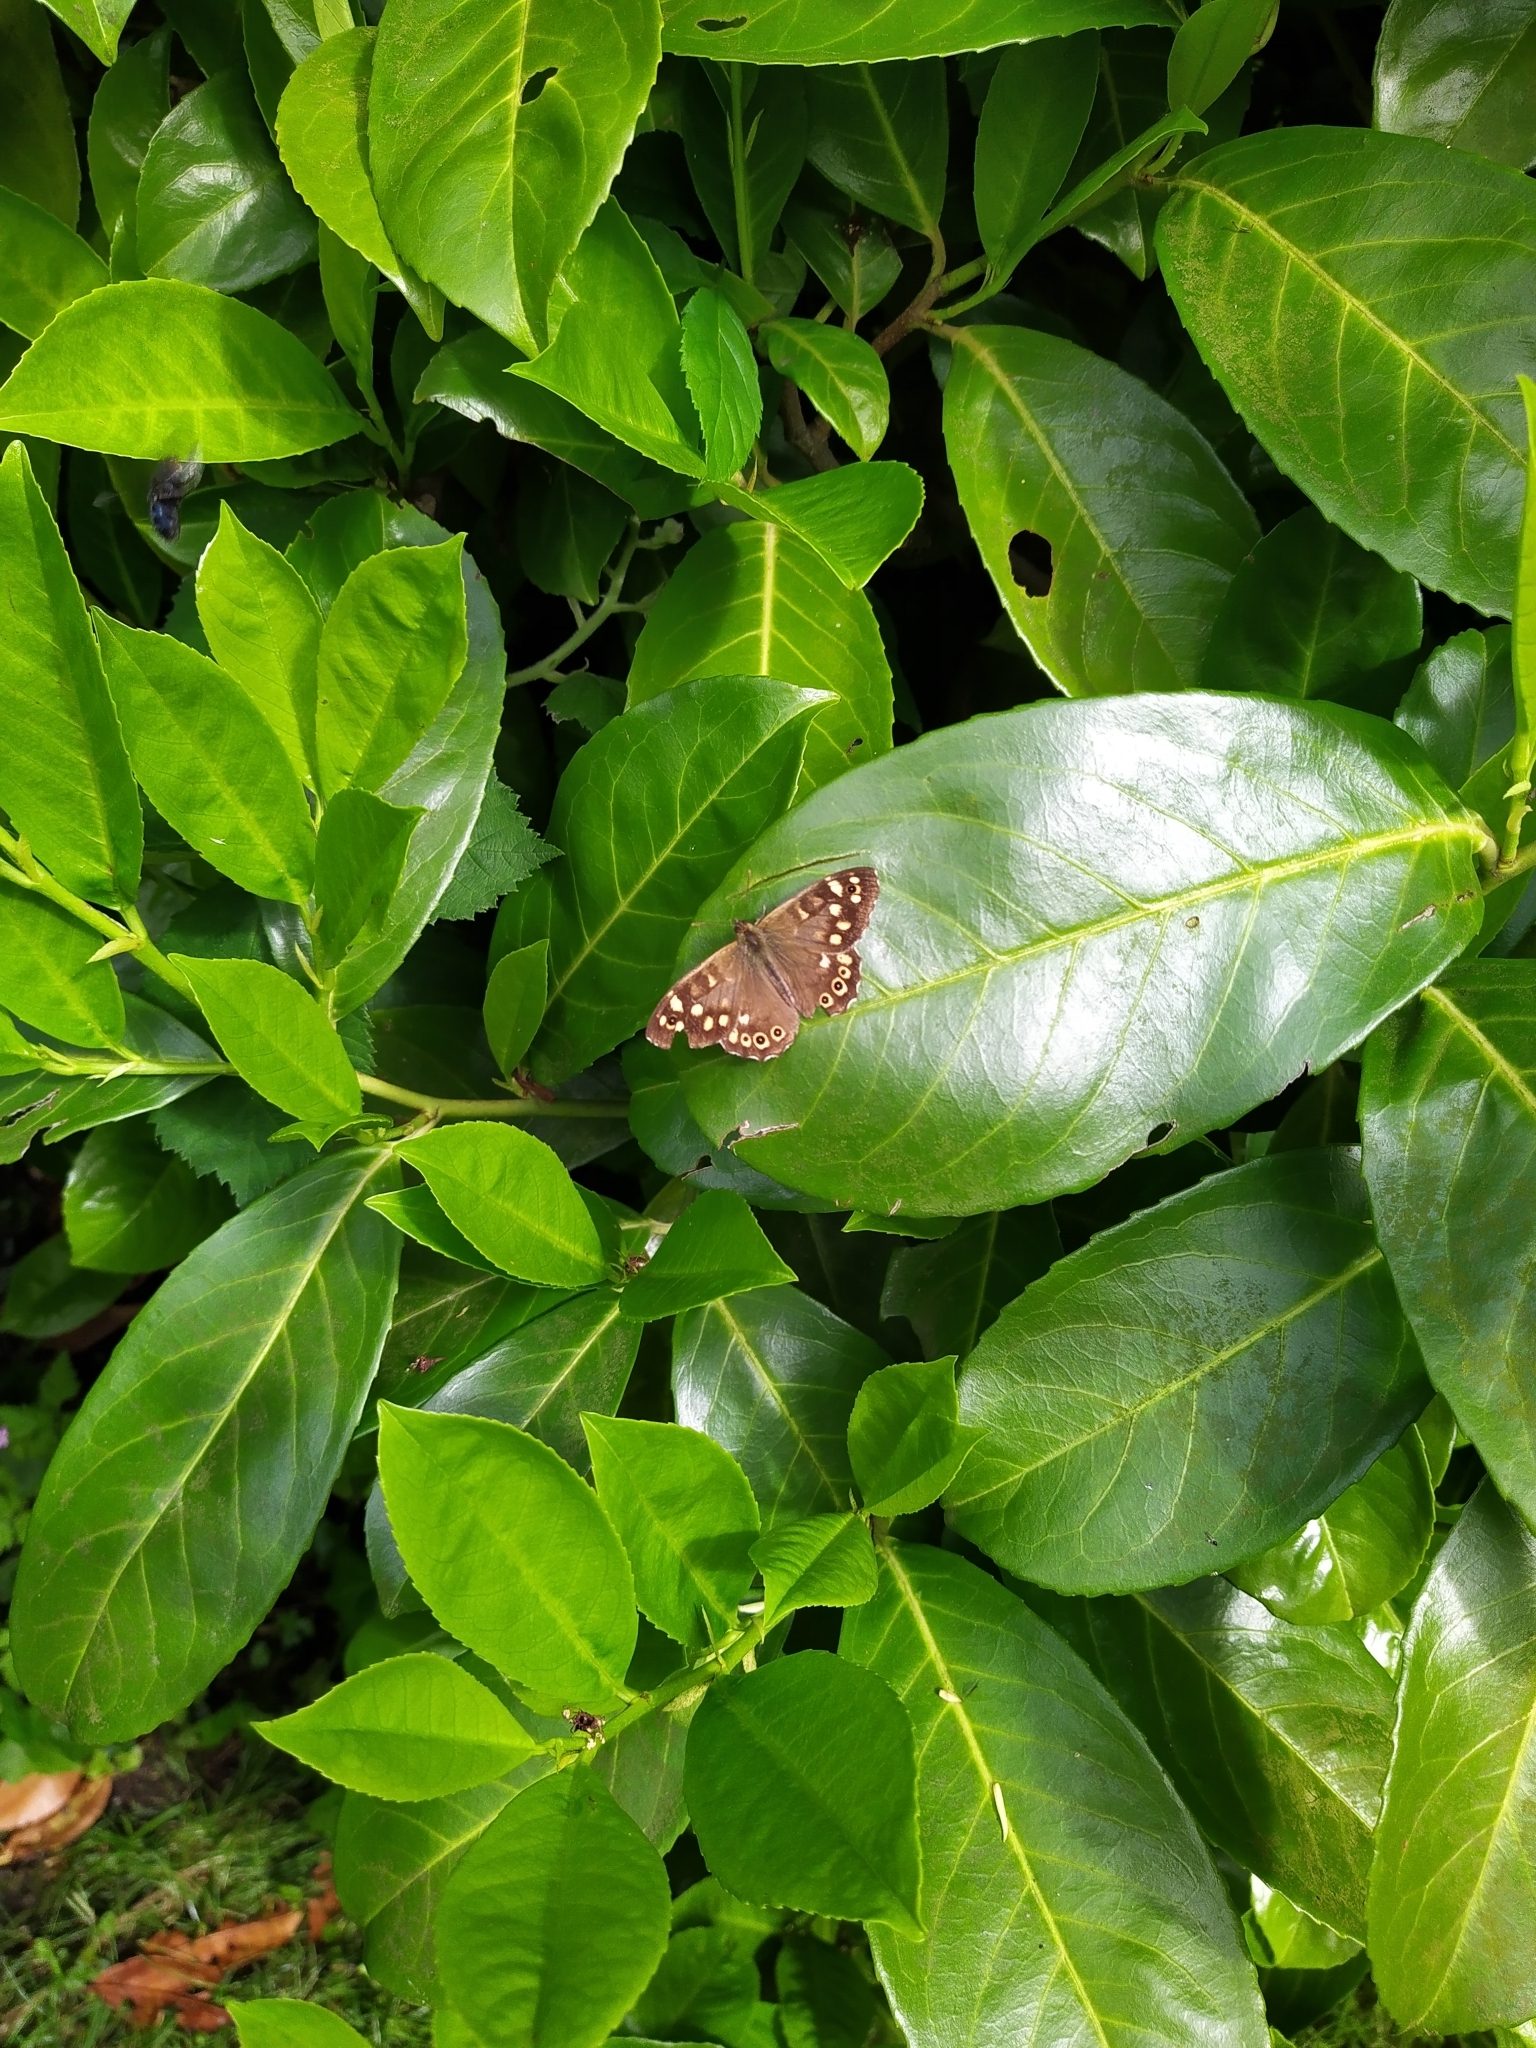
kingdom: Animalia
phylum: Arthropoda
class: Insecta
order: Lepidoptera
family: Nymphalidae
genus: Pararge
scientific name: Pararge aegeria
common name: Speckled wood
